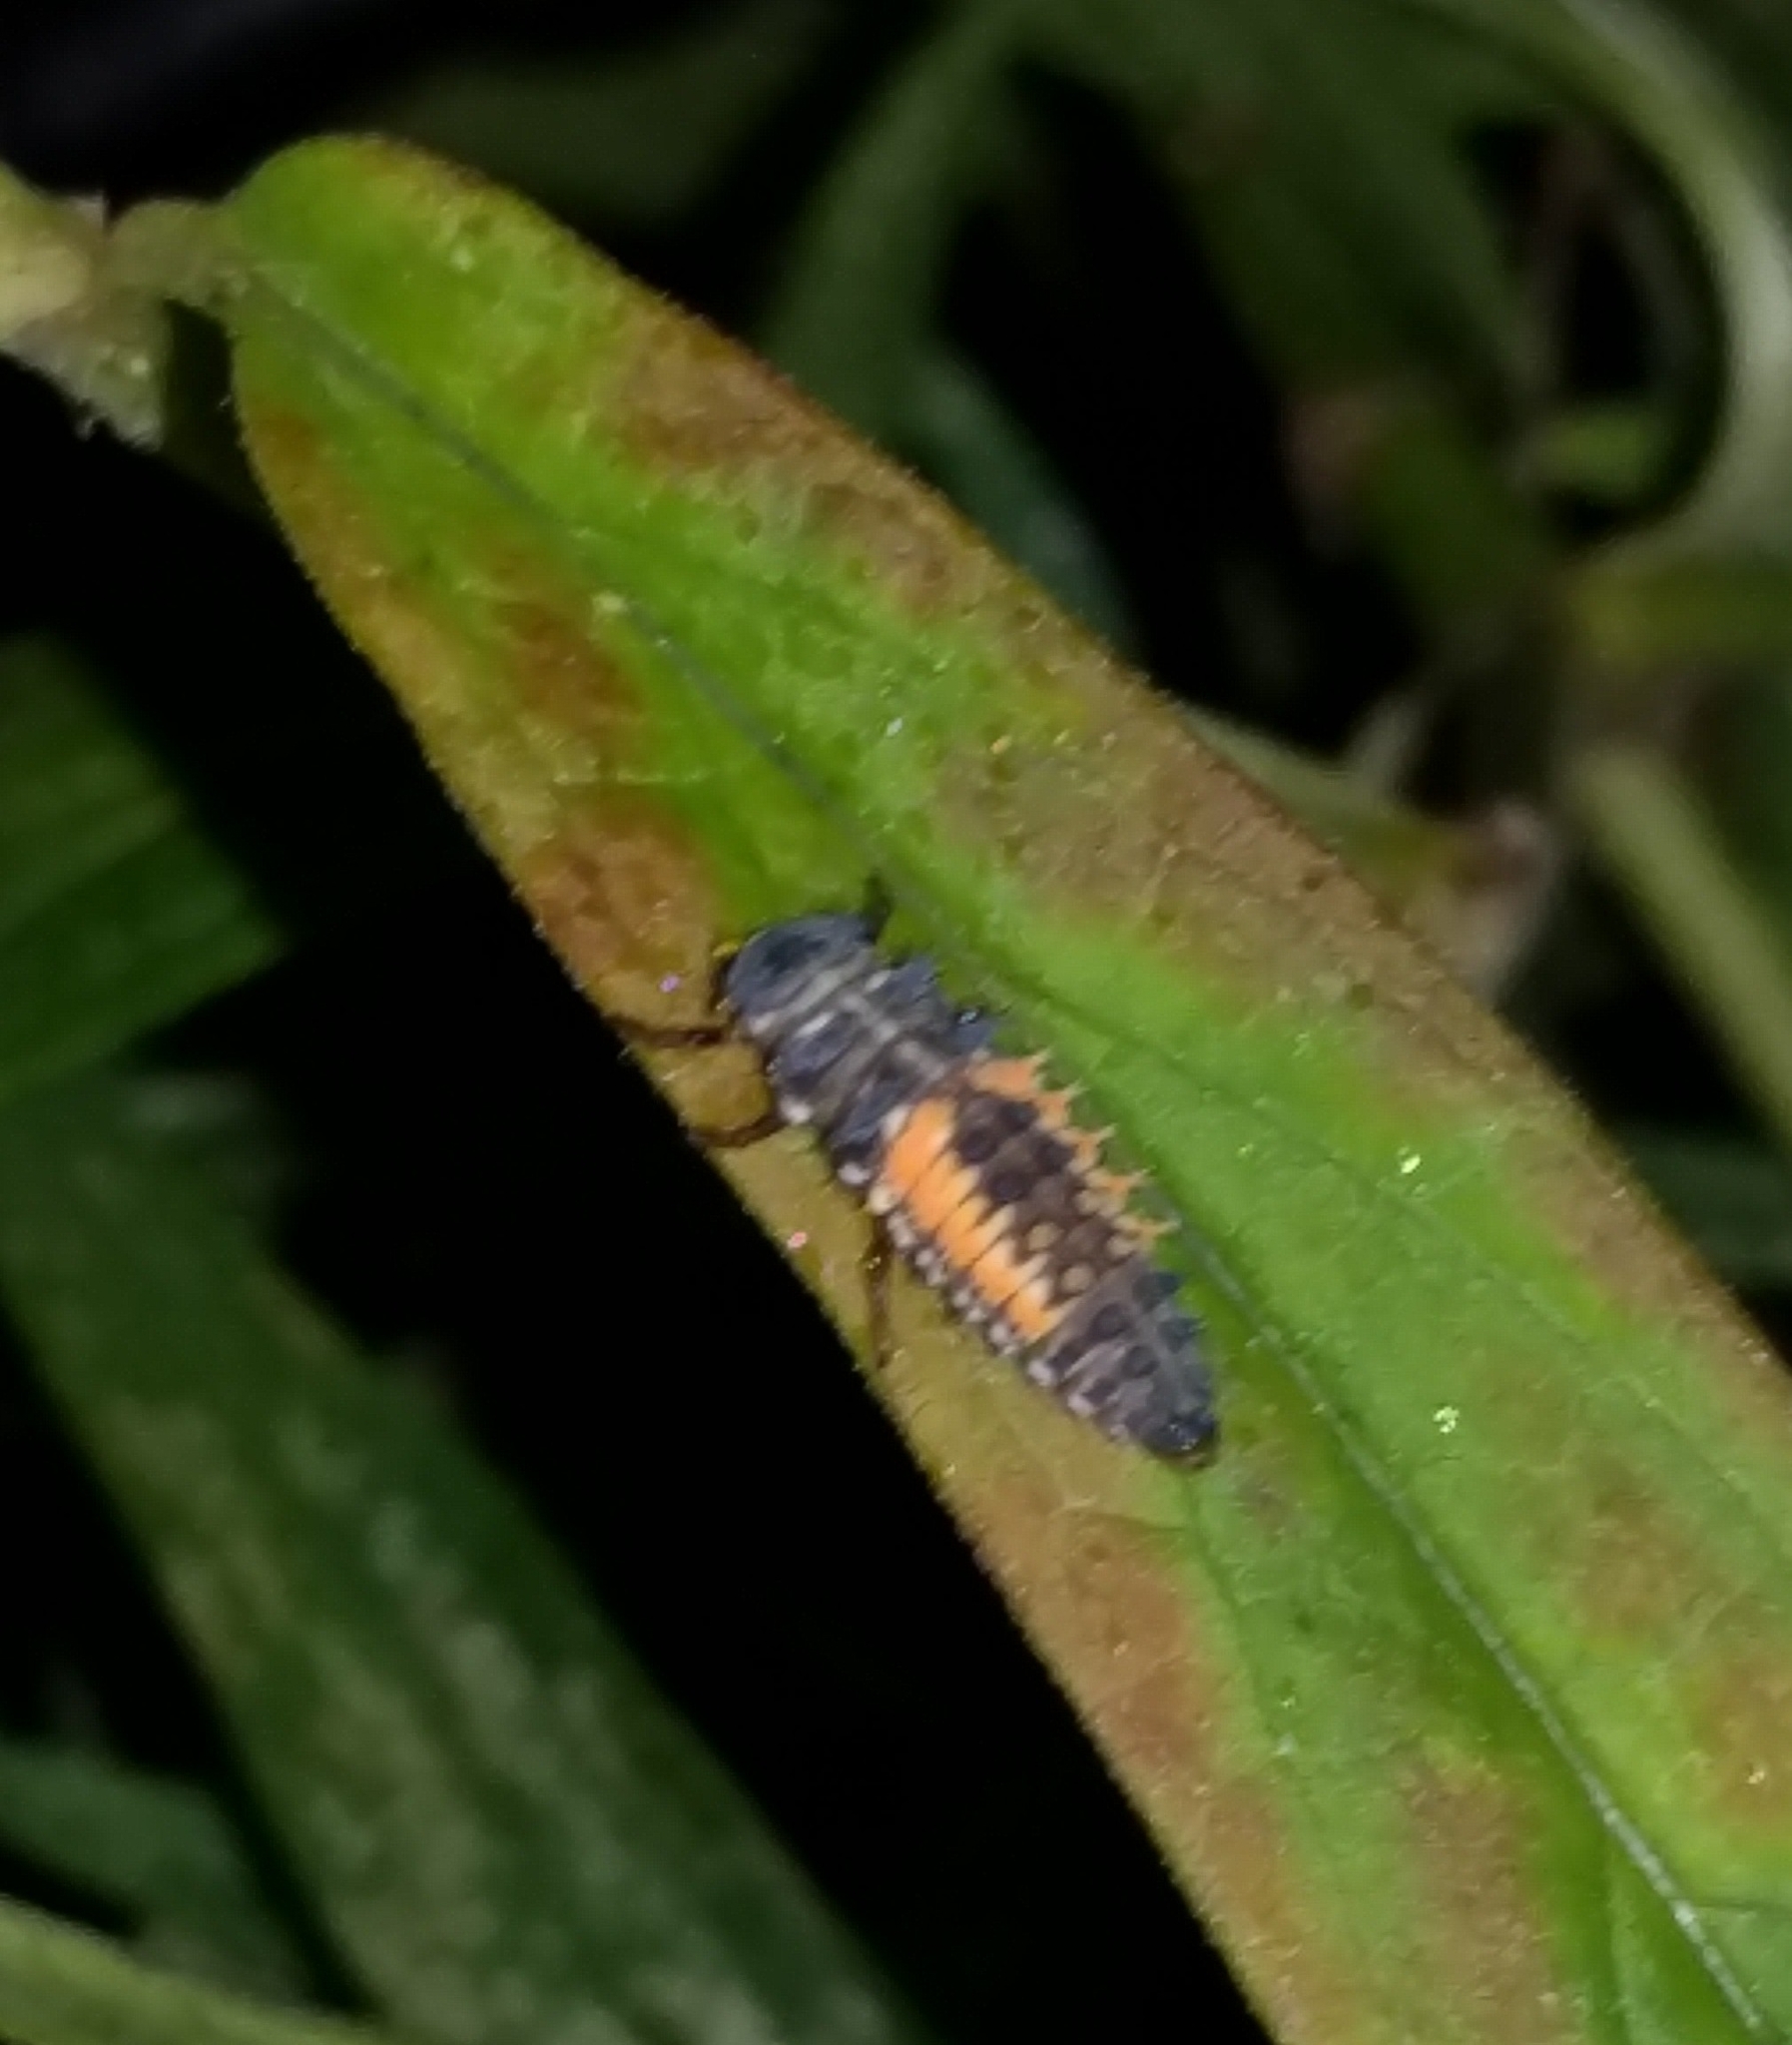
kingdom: Animalia
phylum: Arthropoda
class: Insecta
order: Coleoptera
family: Coccinellidae
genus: Harmonia
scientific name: Harmonia axyridis
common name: Harlequin ladybird
